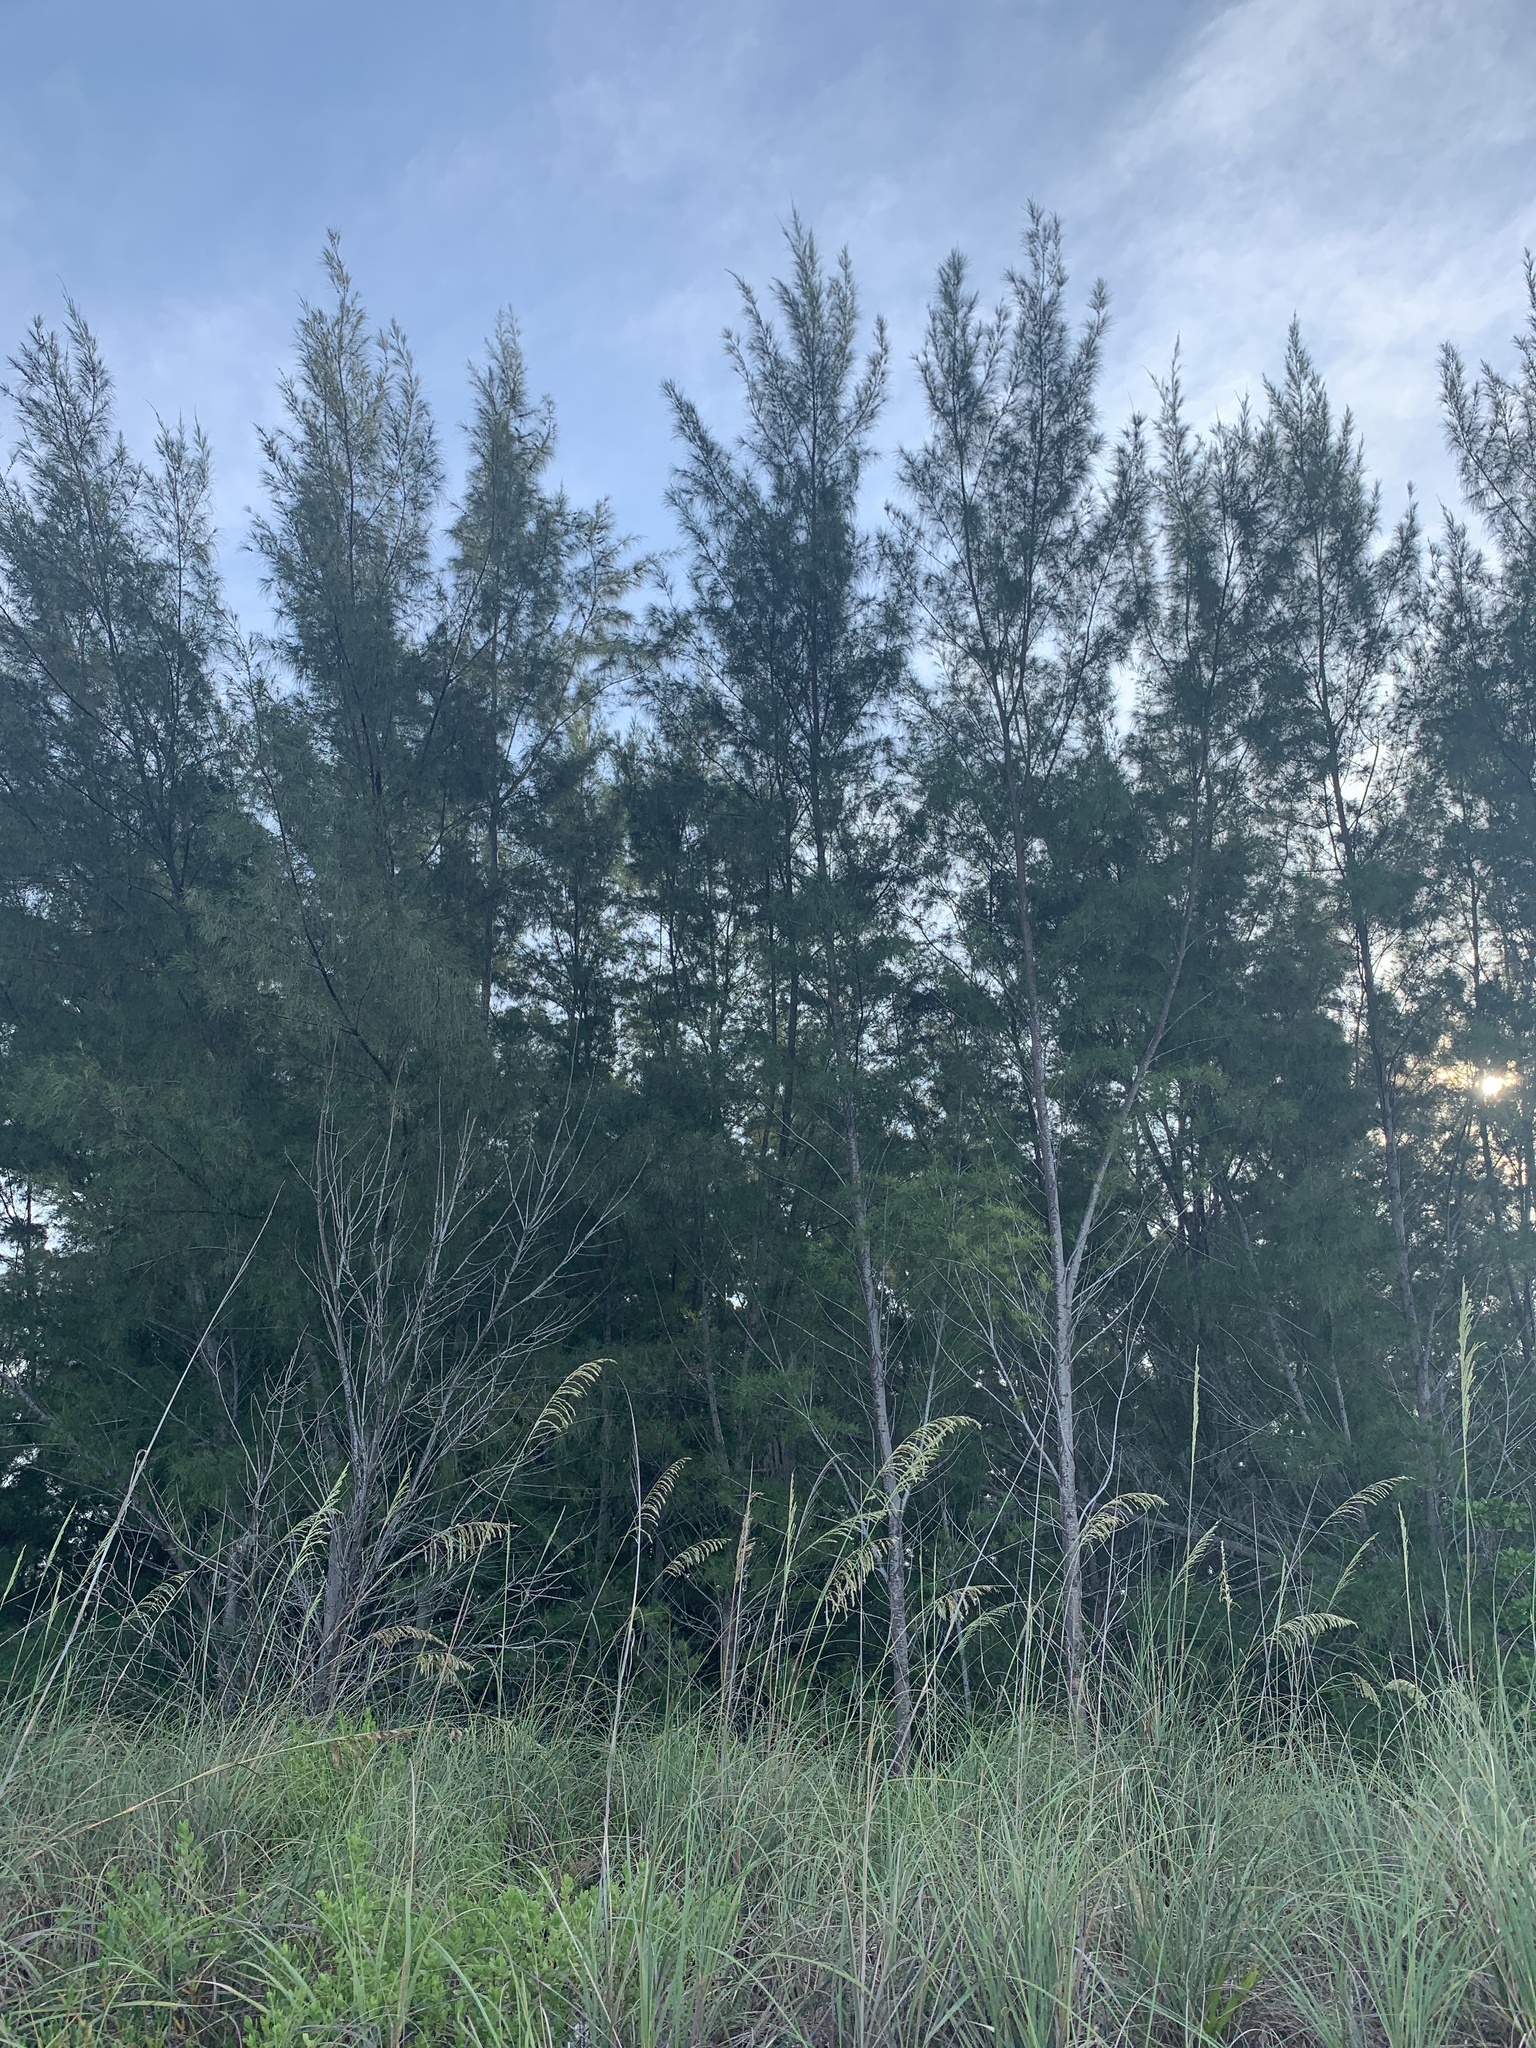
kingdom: Plantae
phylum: Tracheophyta
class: Magnoliopsida
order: Fagales
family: Casuarinaceae
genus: Casuarina
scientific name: Casuarina equisetifolia
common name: Beach sheoak
